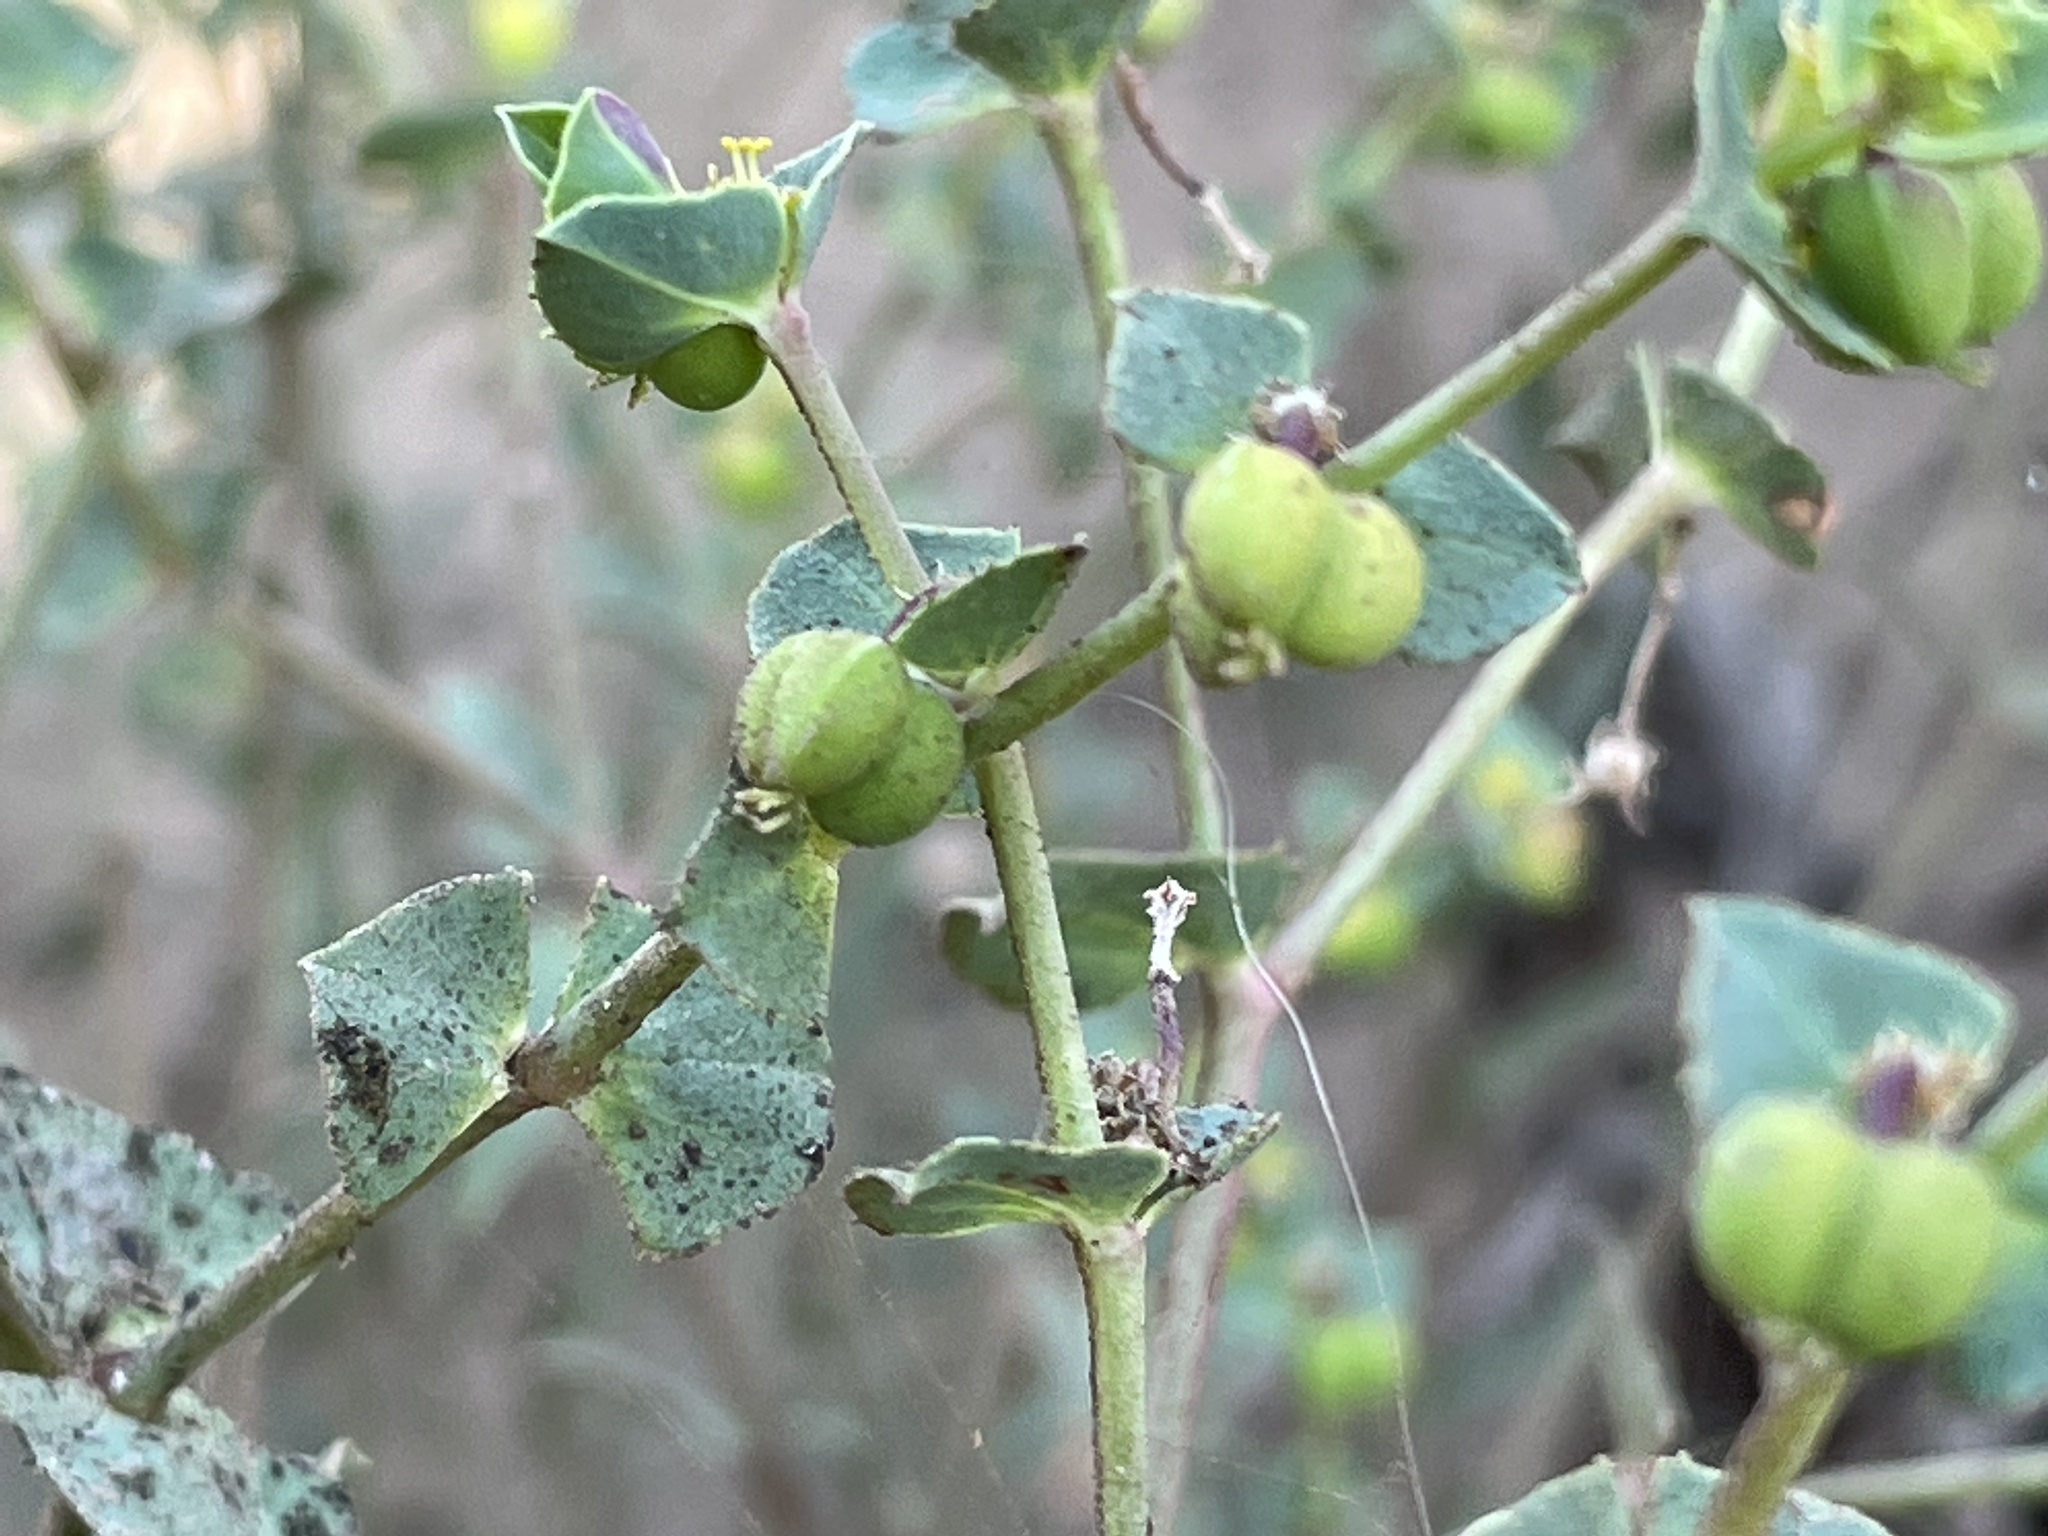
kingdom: Plantae
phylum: Tracheophyta
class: Magnoliopsida
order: Malpighiales
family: Euphorbiaceae
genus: Euphorbia
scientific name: Euphorbia terracina
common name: Geraldton carnation weed
